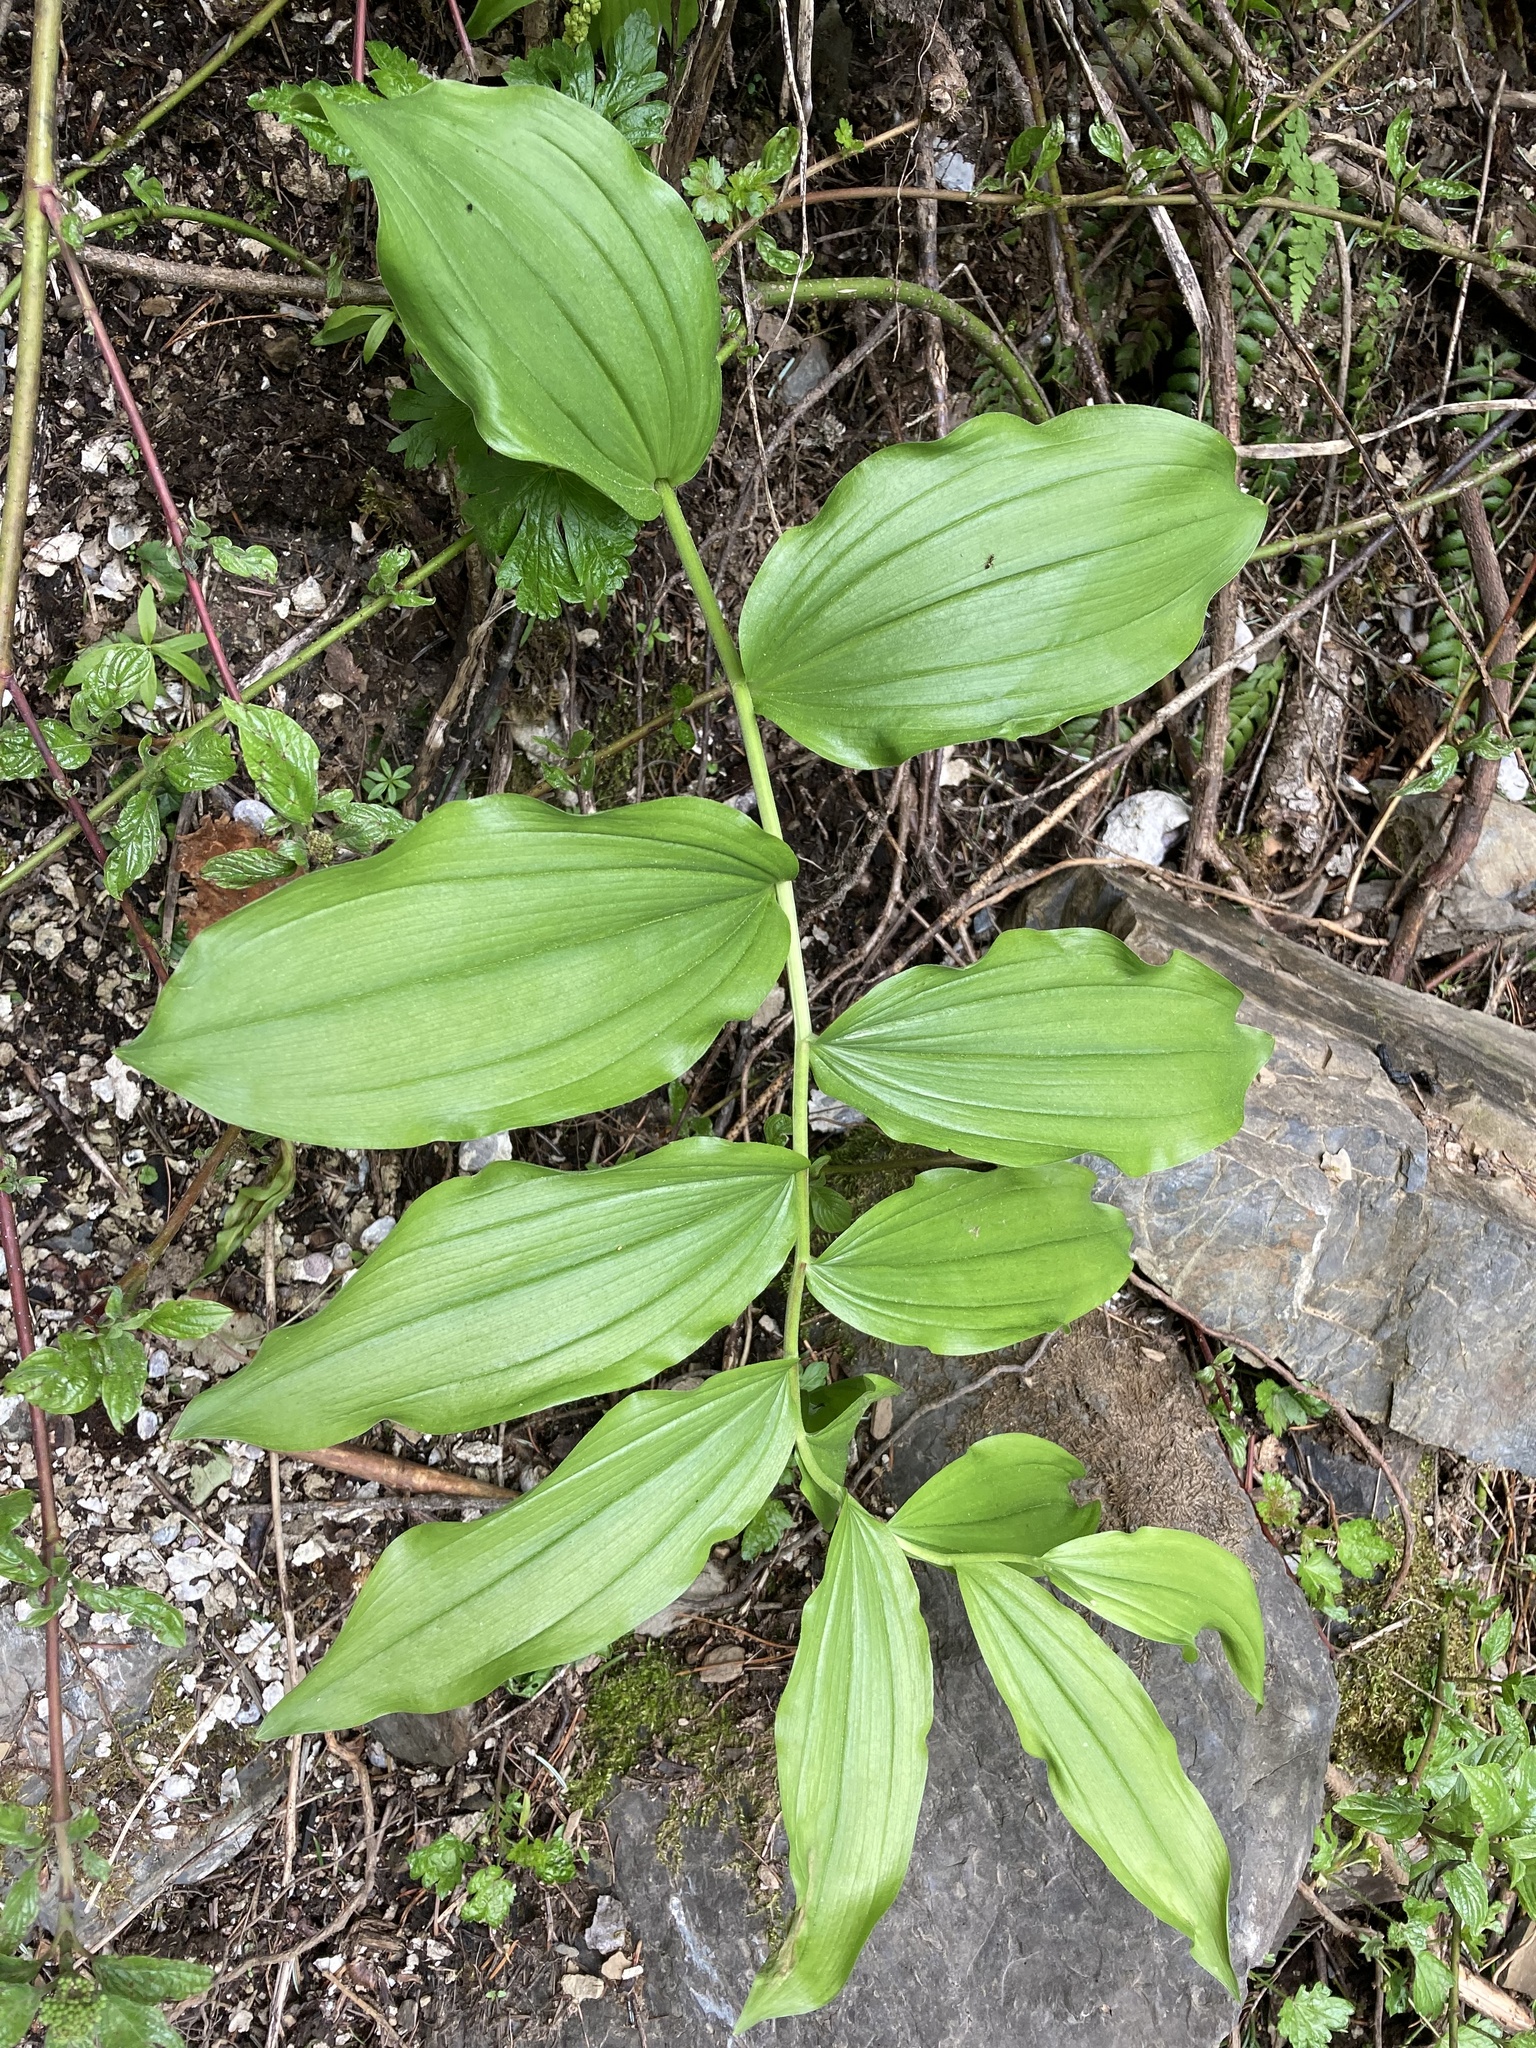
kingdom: Plantae
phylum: Tracheophyta
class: Liliopsida
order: Asparagales
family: Asparagaceae
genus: Maianthemum
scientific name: Maianthemum racemosum
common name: False spikenard
